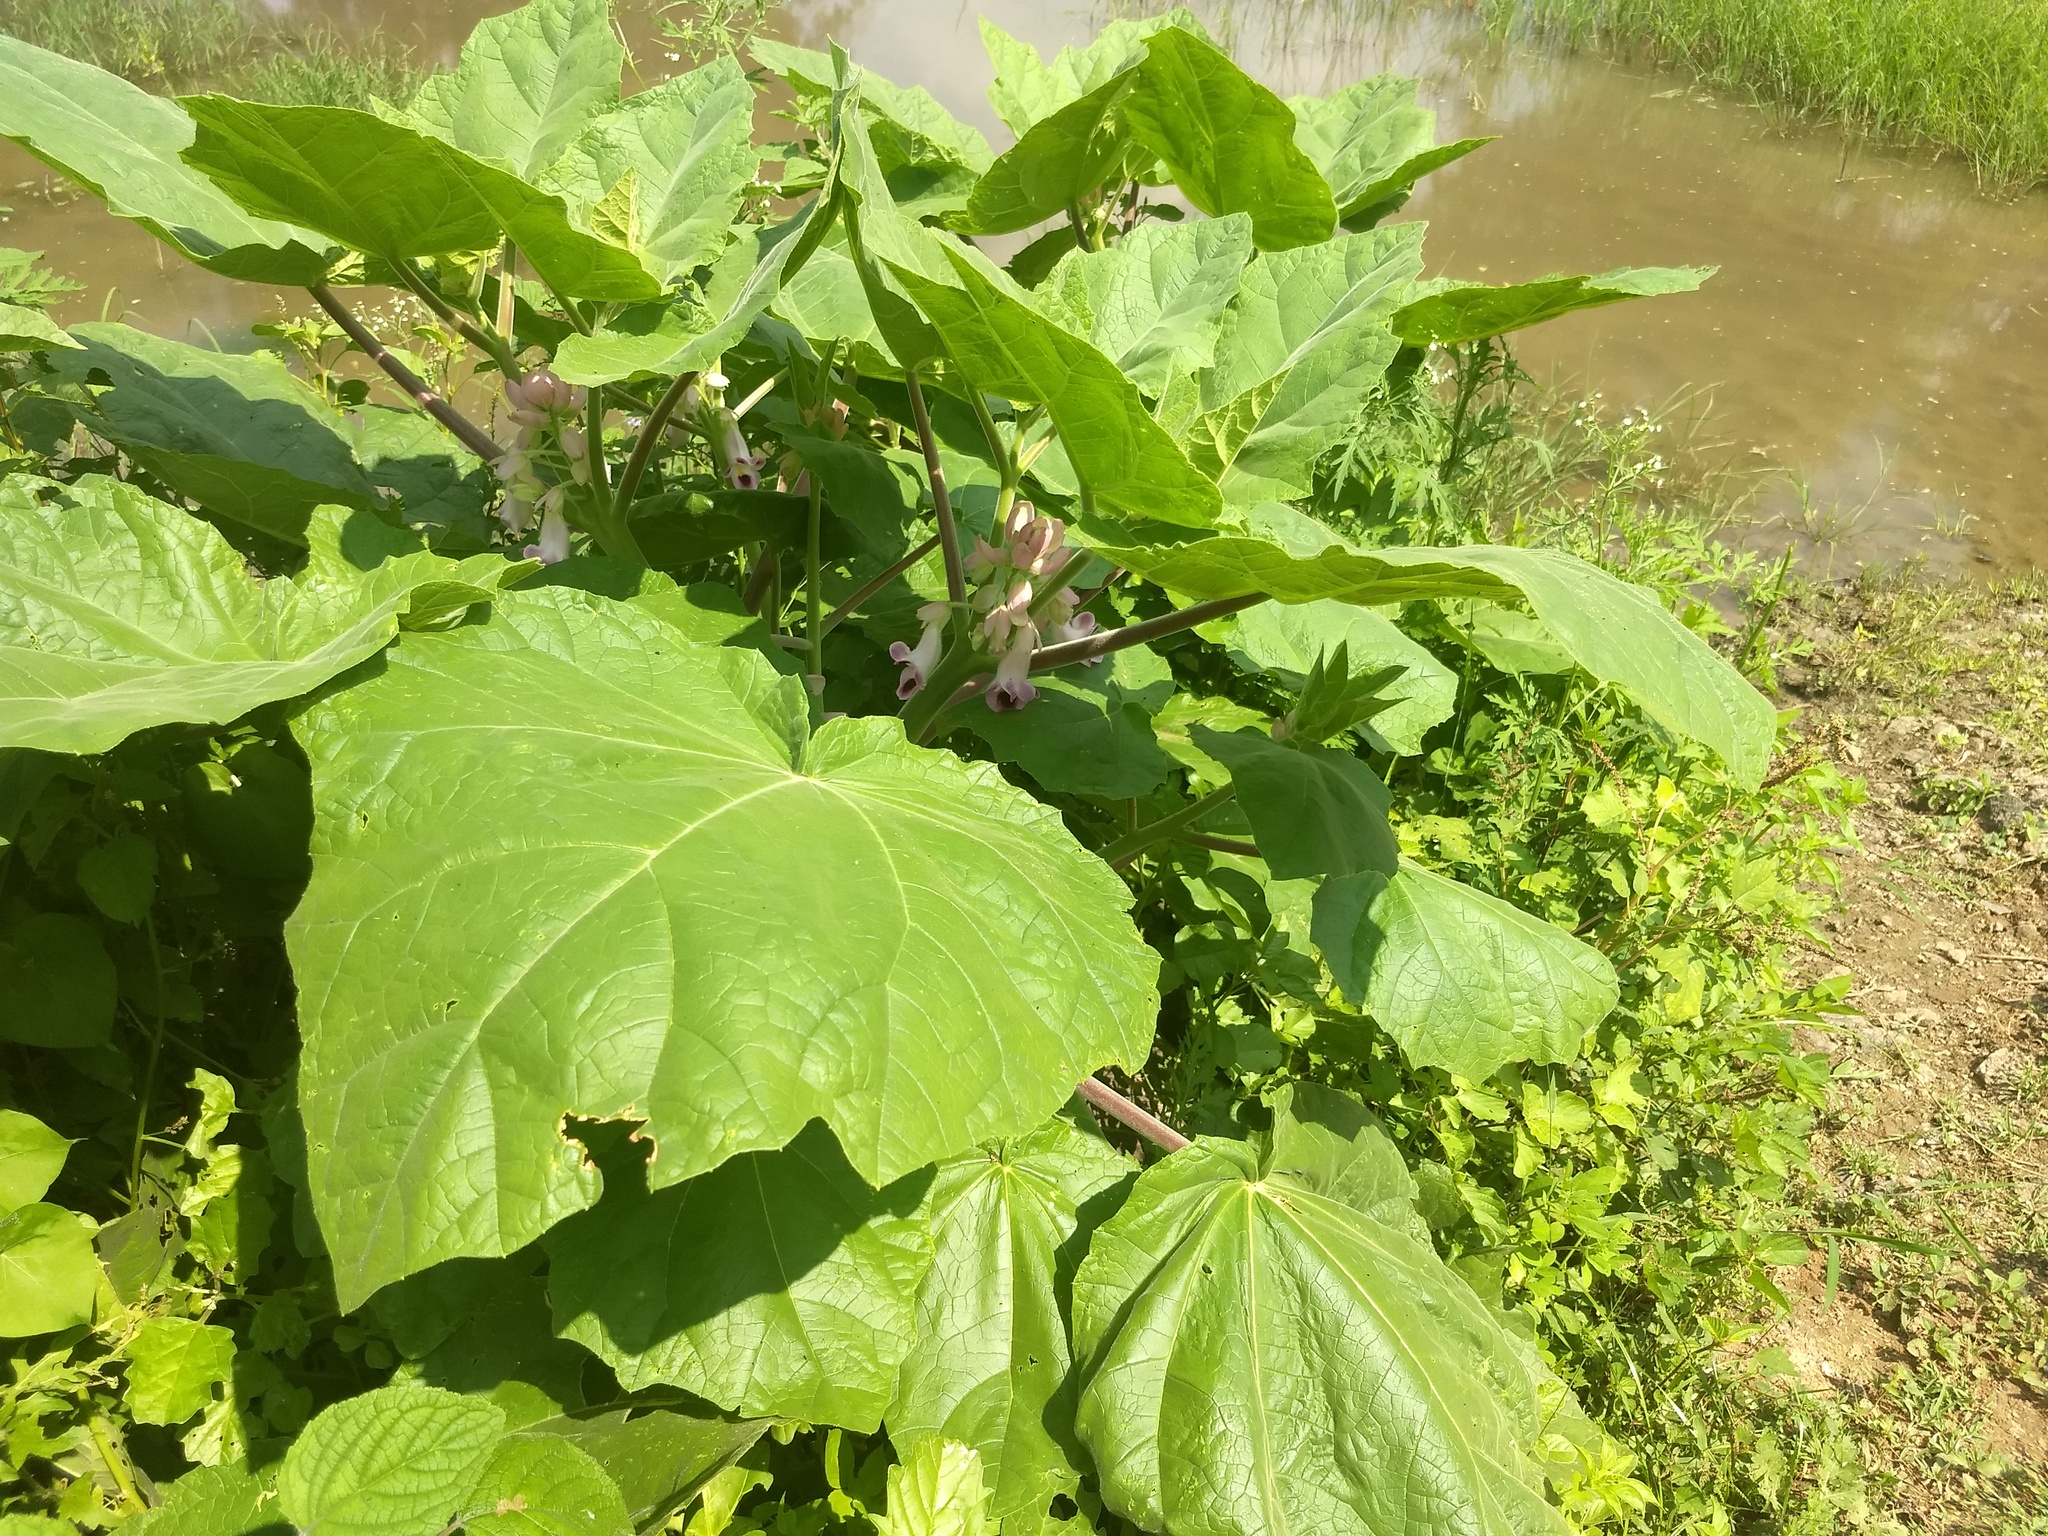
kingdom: Plantae
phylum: Tracheophyta
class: Magnoliopsida
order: Lamiales
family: Martyniaceae
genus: Martynia
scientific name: Martynia annua
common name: Tiger's-claw
